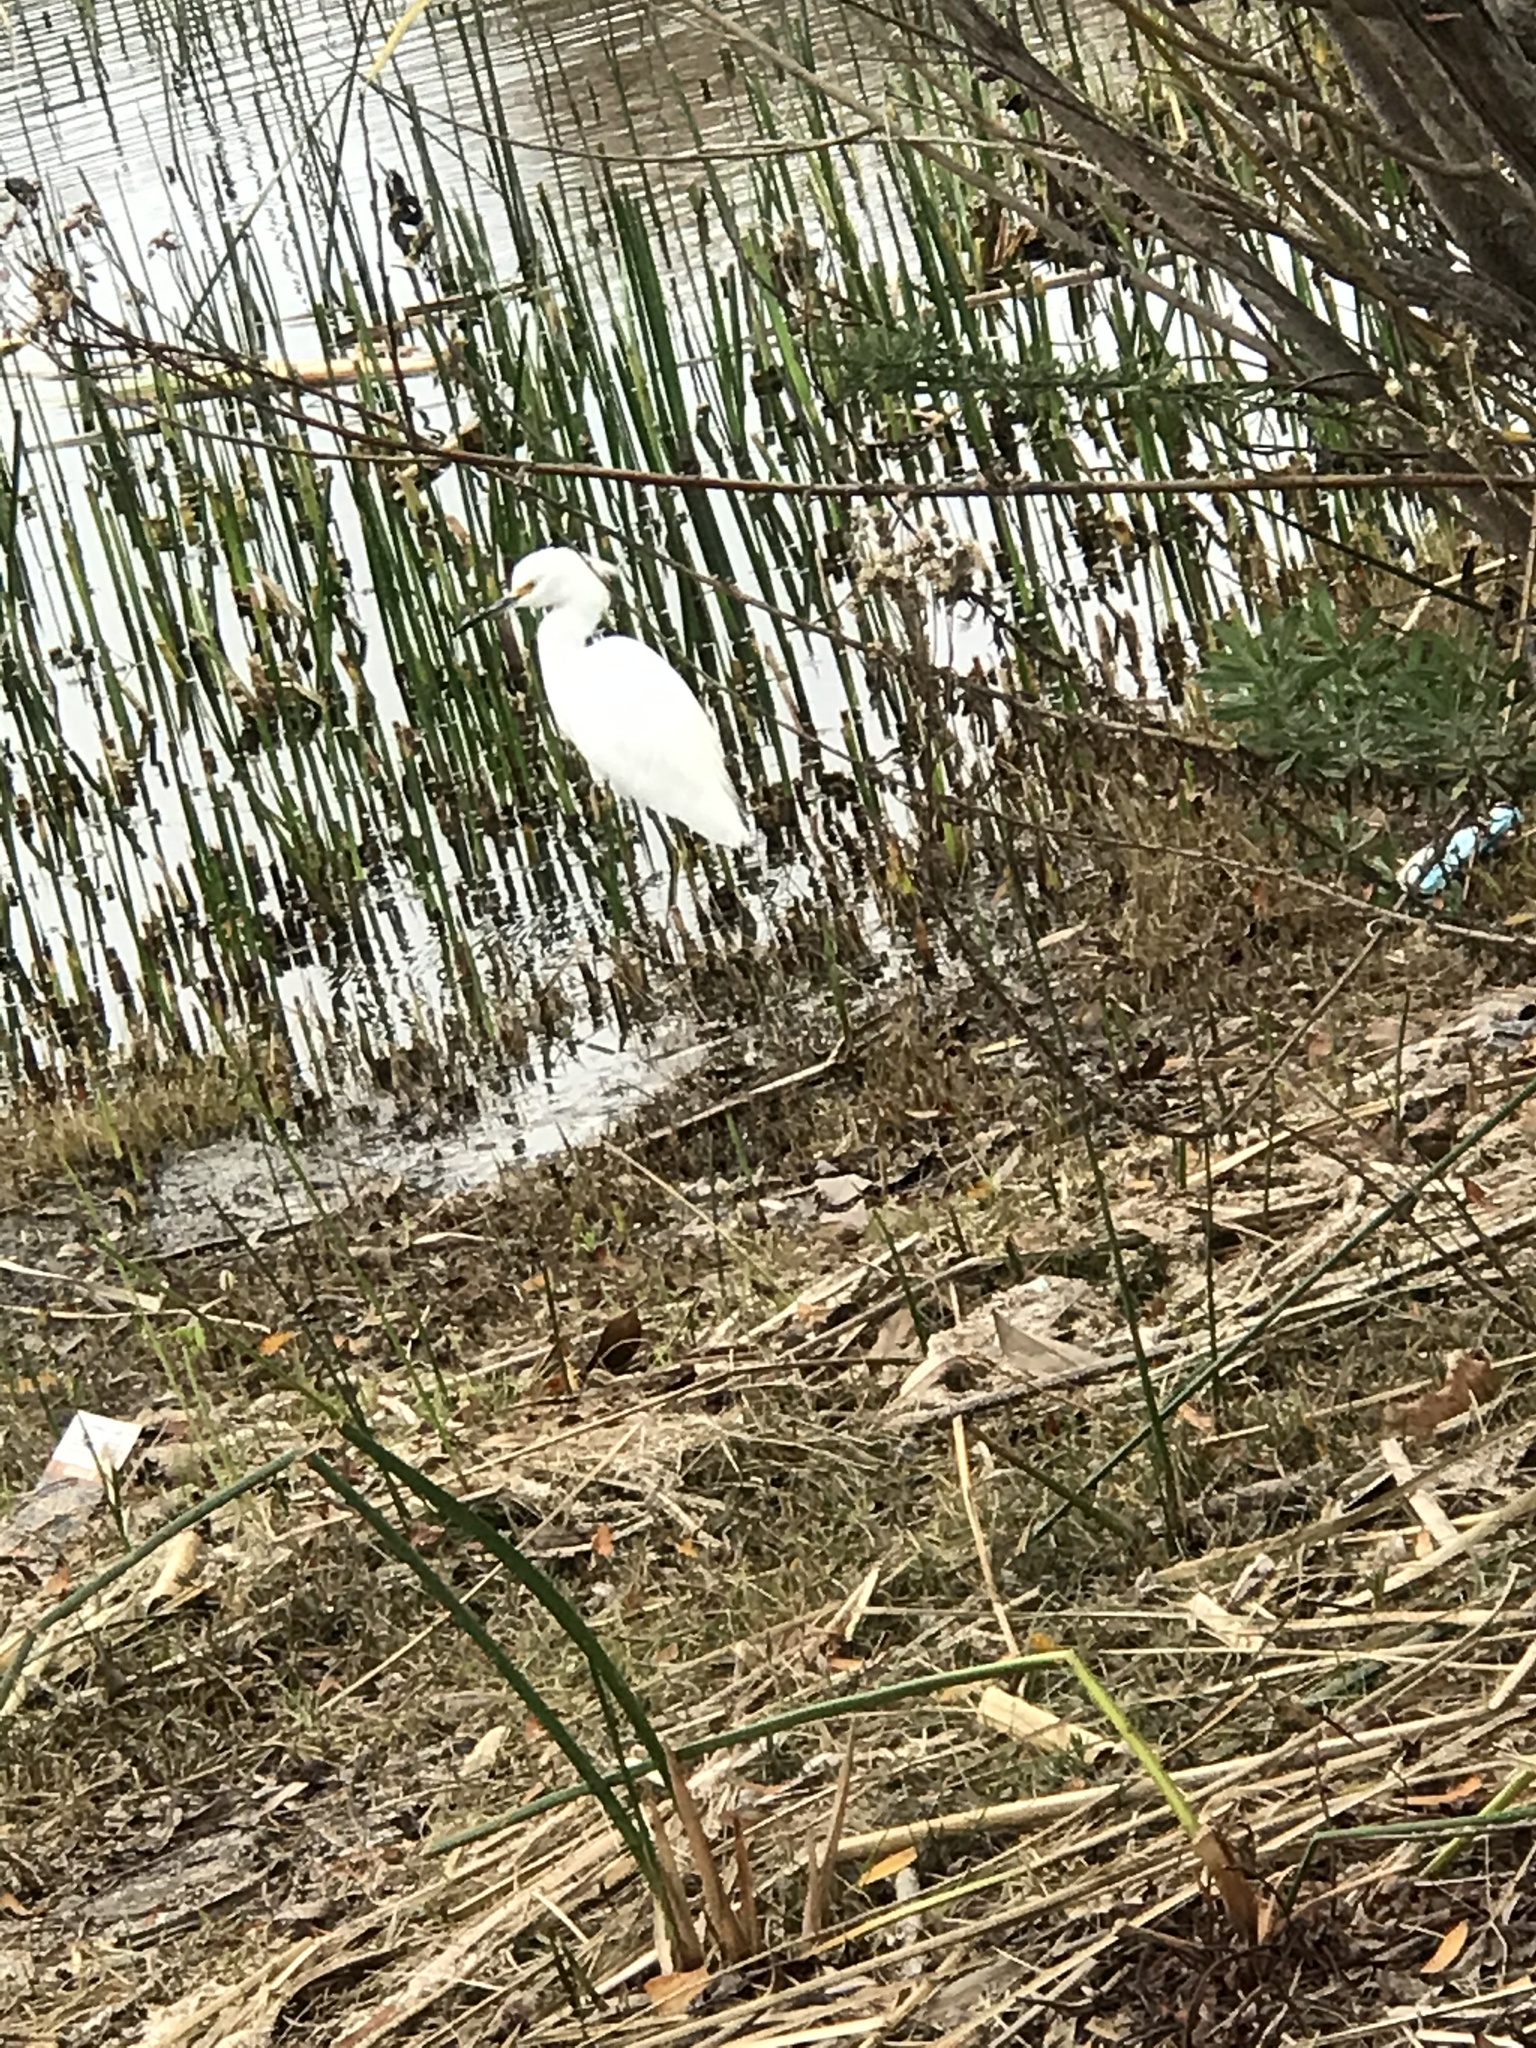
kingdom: Animalia
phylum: Chordata
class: Aves
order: Pelecaniformes
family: Ardeidae
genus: Egretta
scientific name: Egretta thula
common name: Snowy egret
